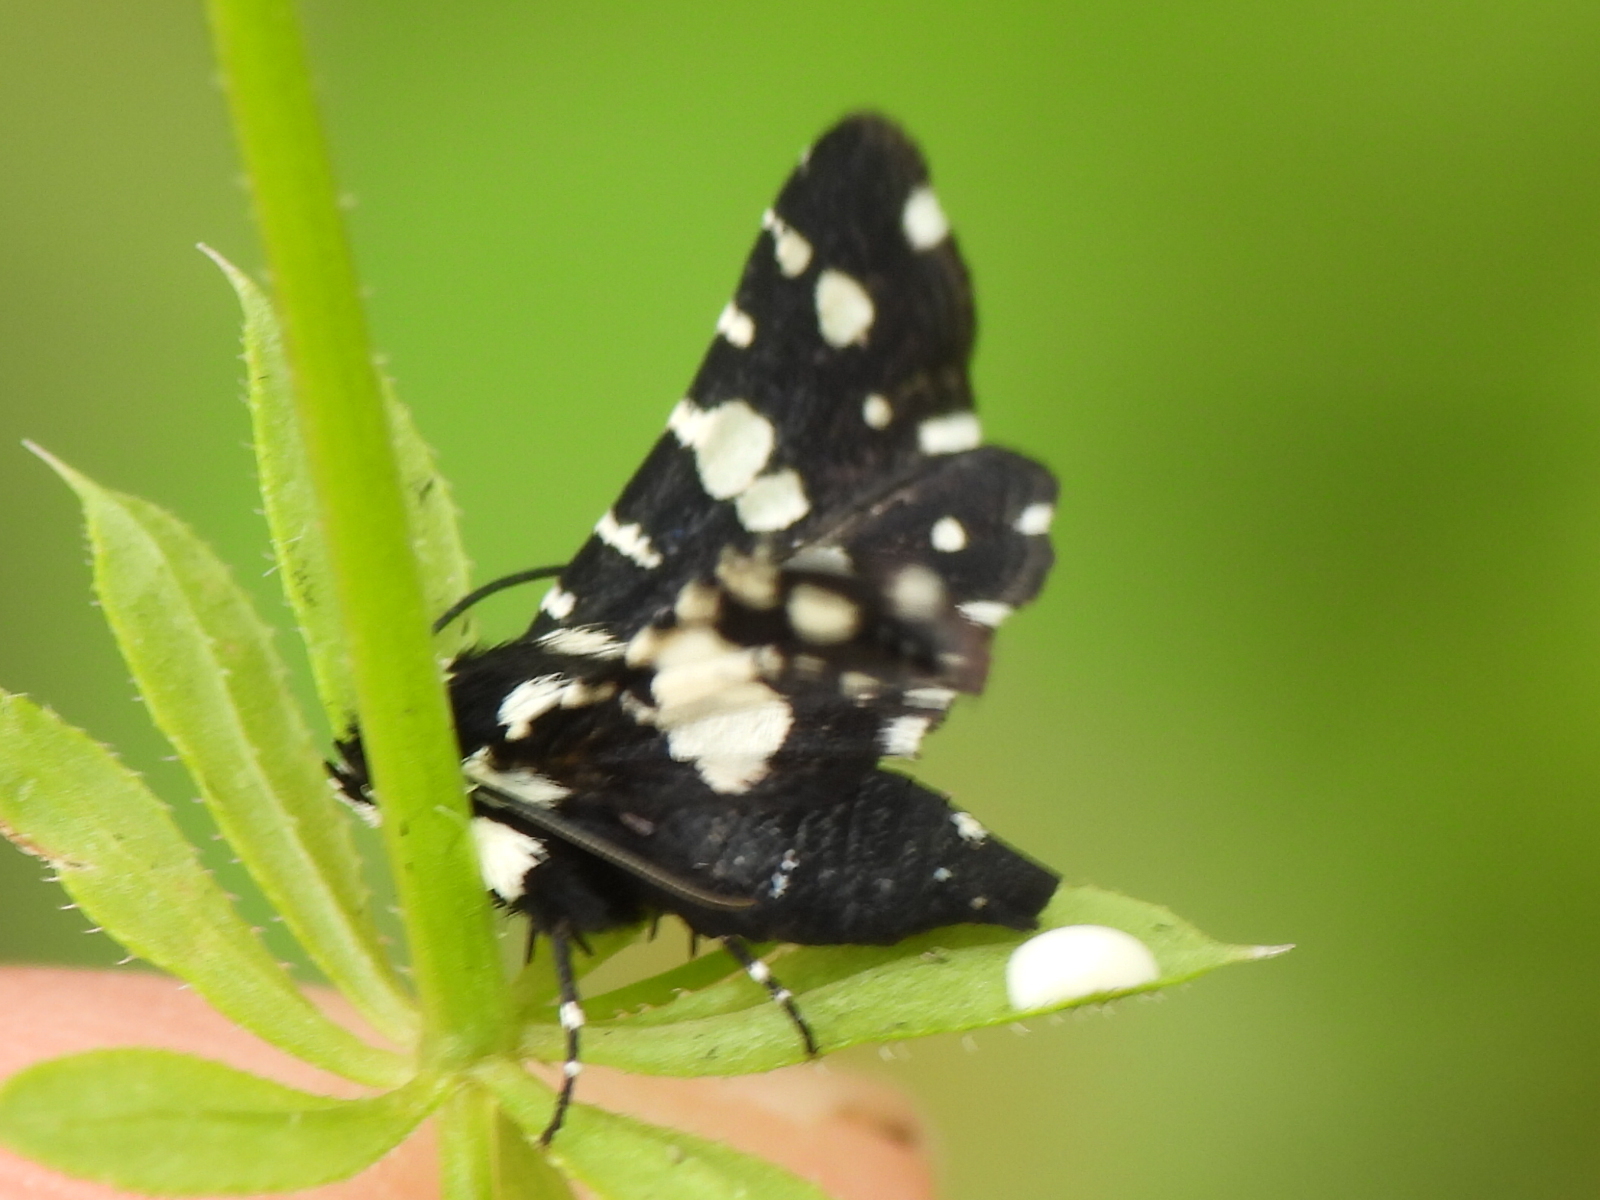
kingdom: Animalia
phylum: Arthropoda
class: Insecta
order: Lepidoptera
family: Thyrididae
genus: Pseudothyris
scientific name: Pseudothyris sepulchralis
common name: Mournful thyris moth
